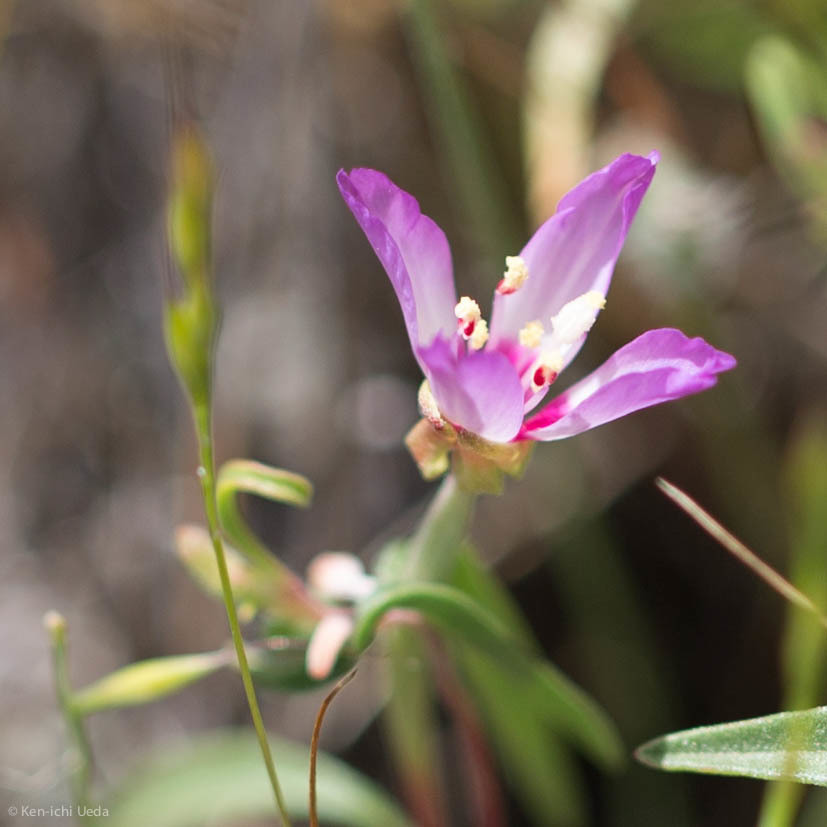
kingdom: Plantae
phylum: Tracheophyta
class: Magnoliopsida
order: Myrtales
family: Onagraceae
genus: Clarkia
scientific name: Clarkia franciscana
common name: Presidio clarkia
